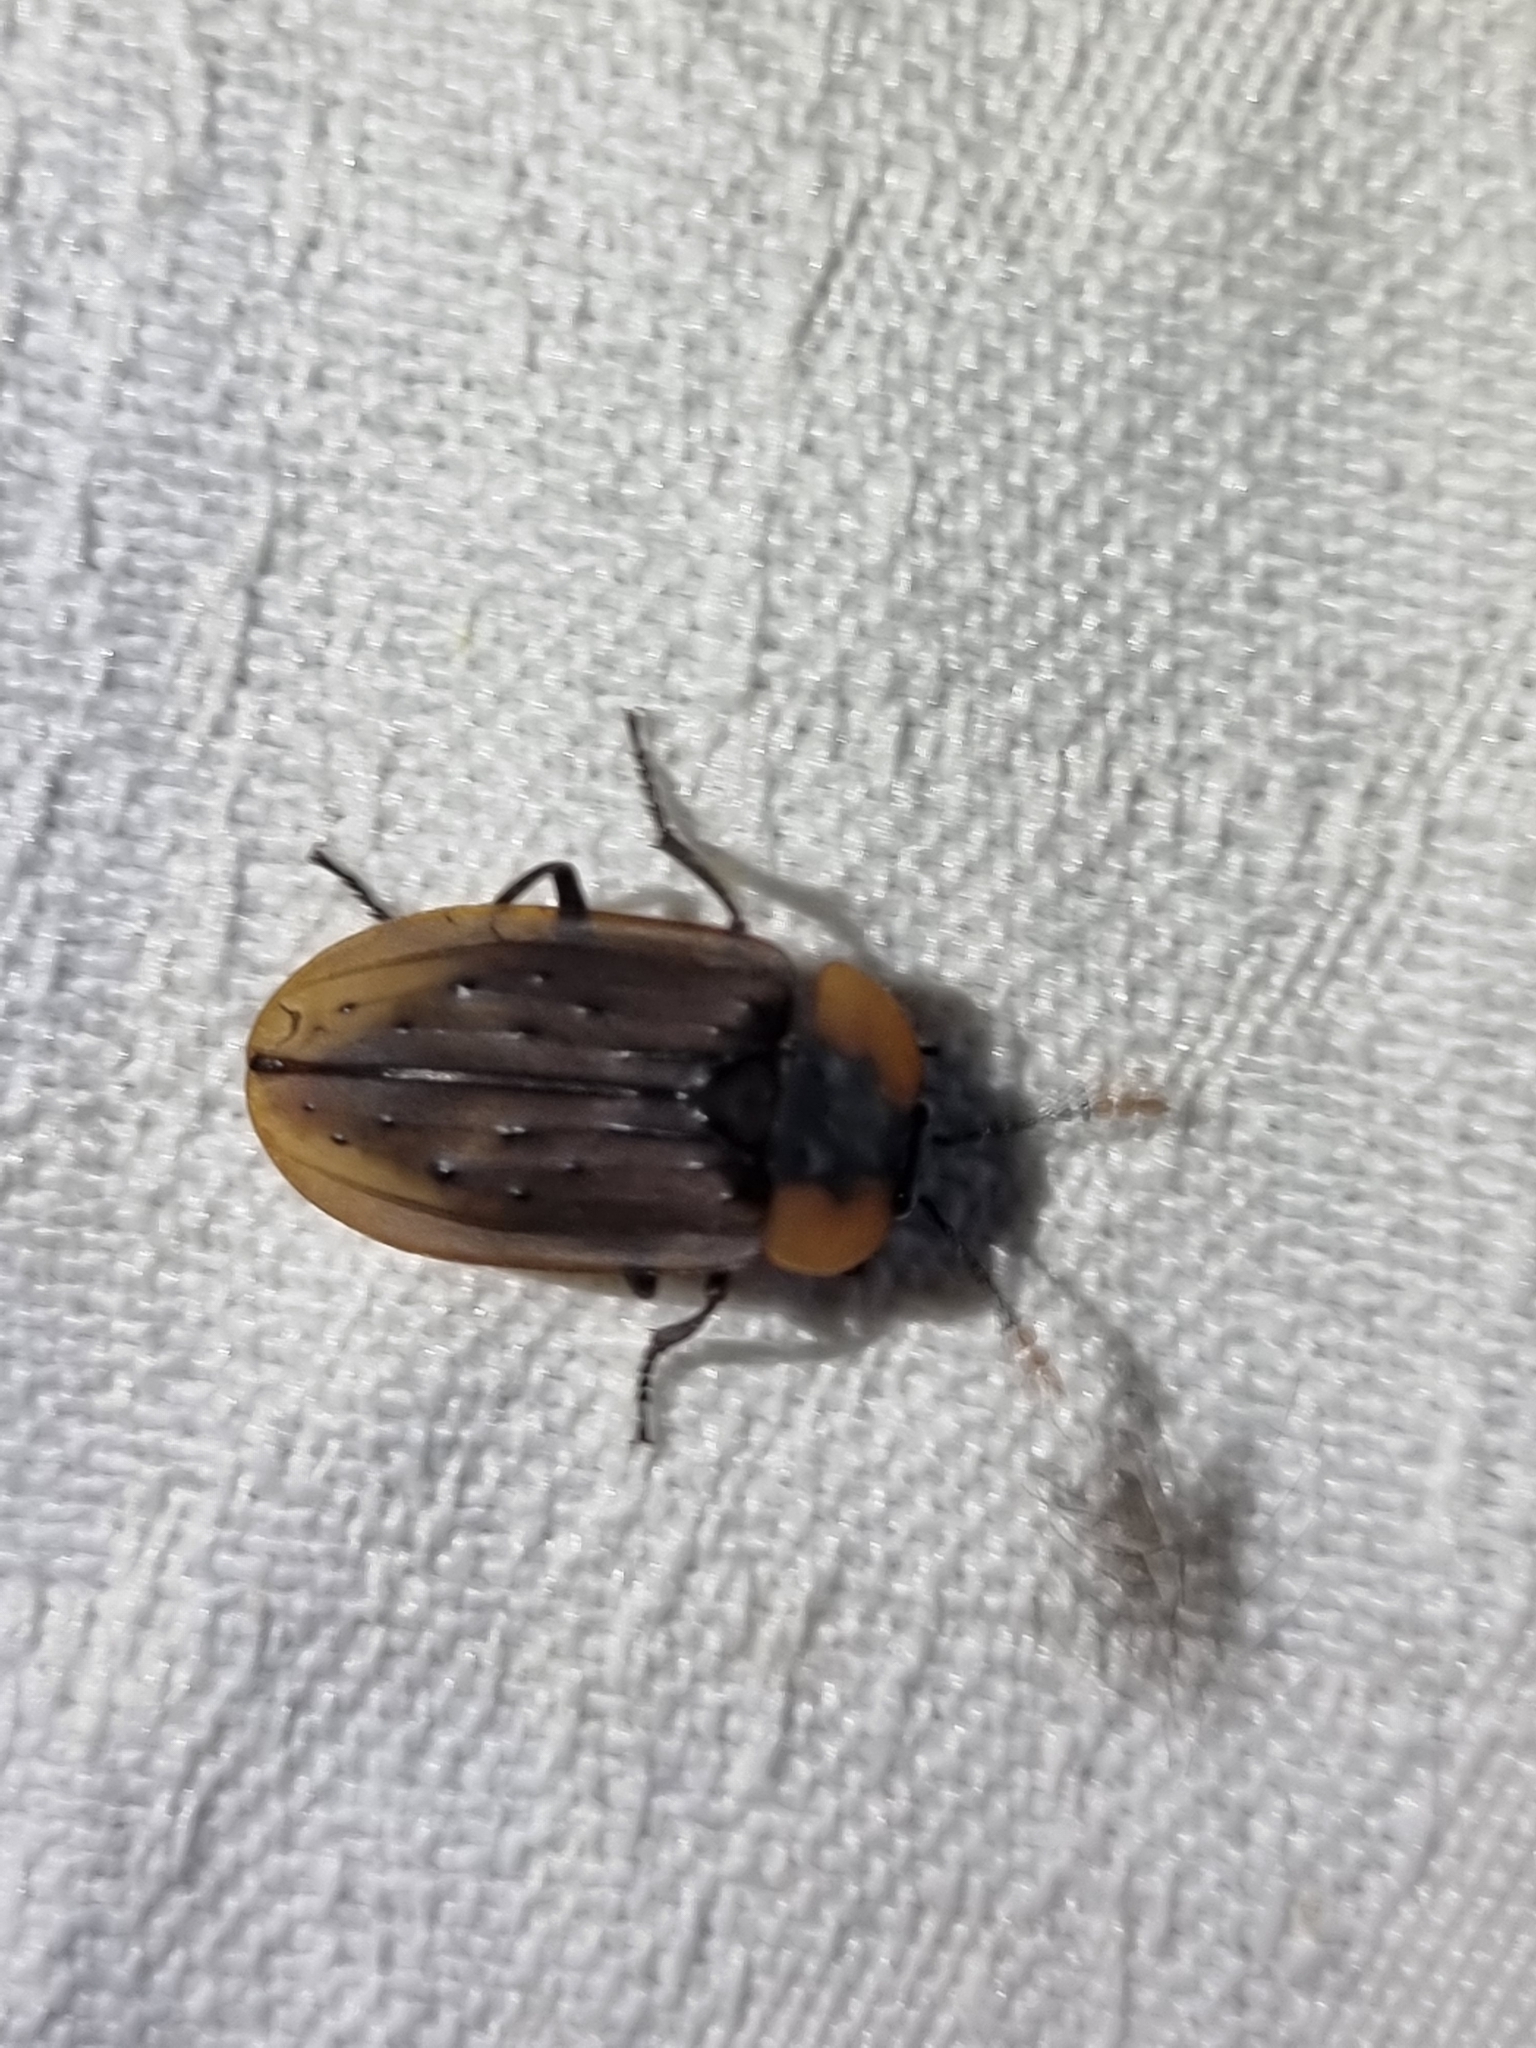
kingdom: Animalia
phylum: Arthropoda
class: Insecta
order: Coleoptera
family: Staphylinidae
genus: Ptomaphila
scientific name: Ptomaphila perlata
